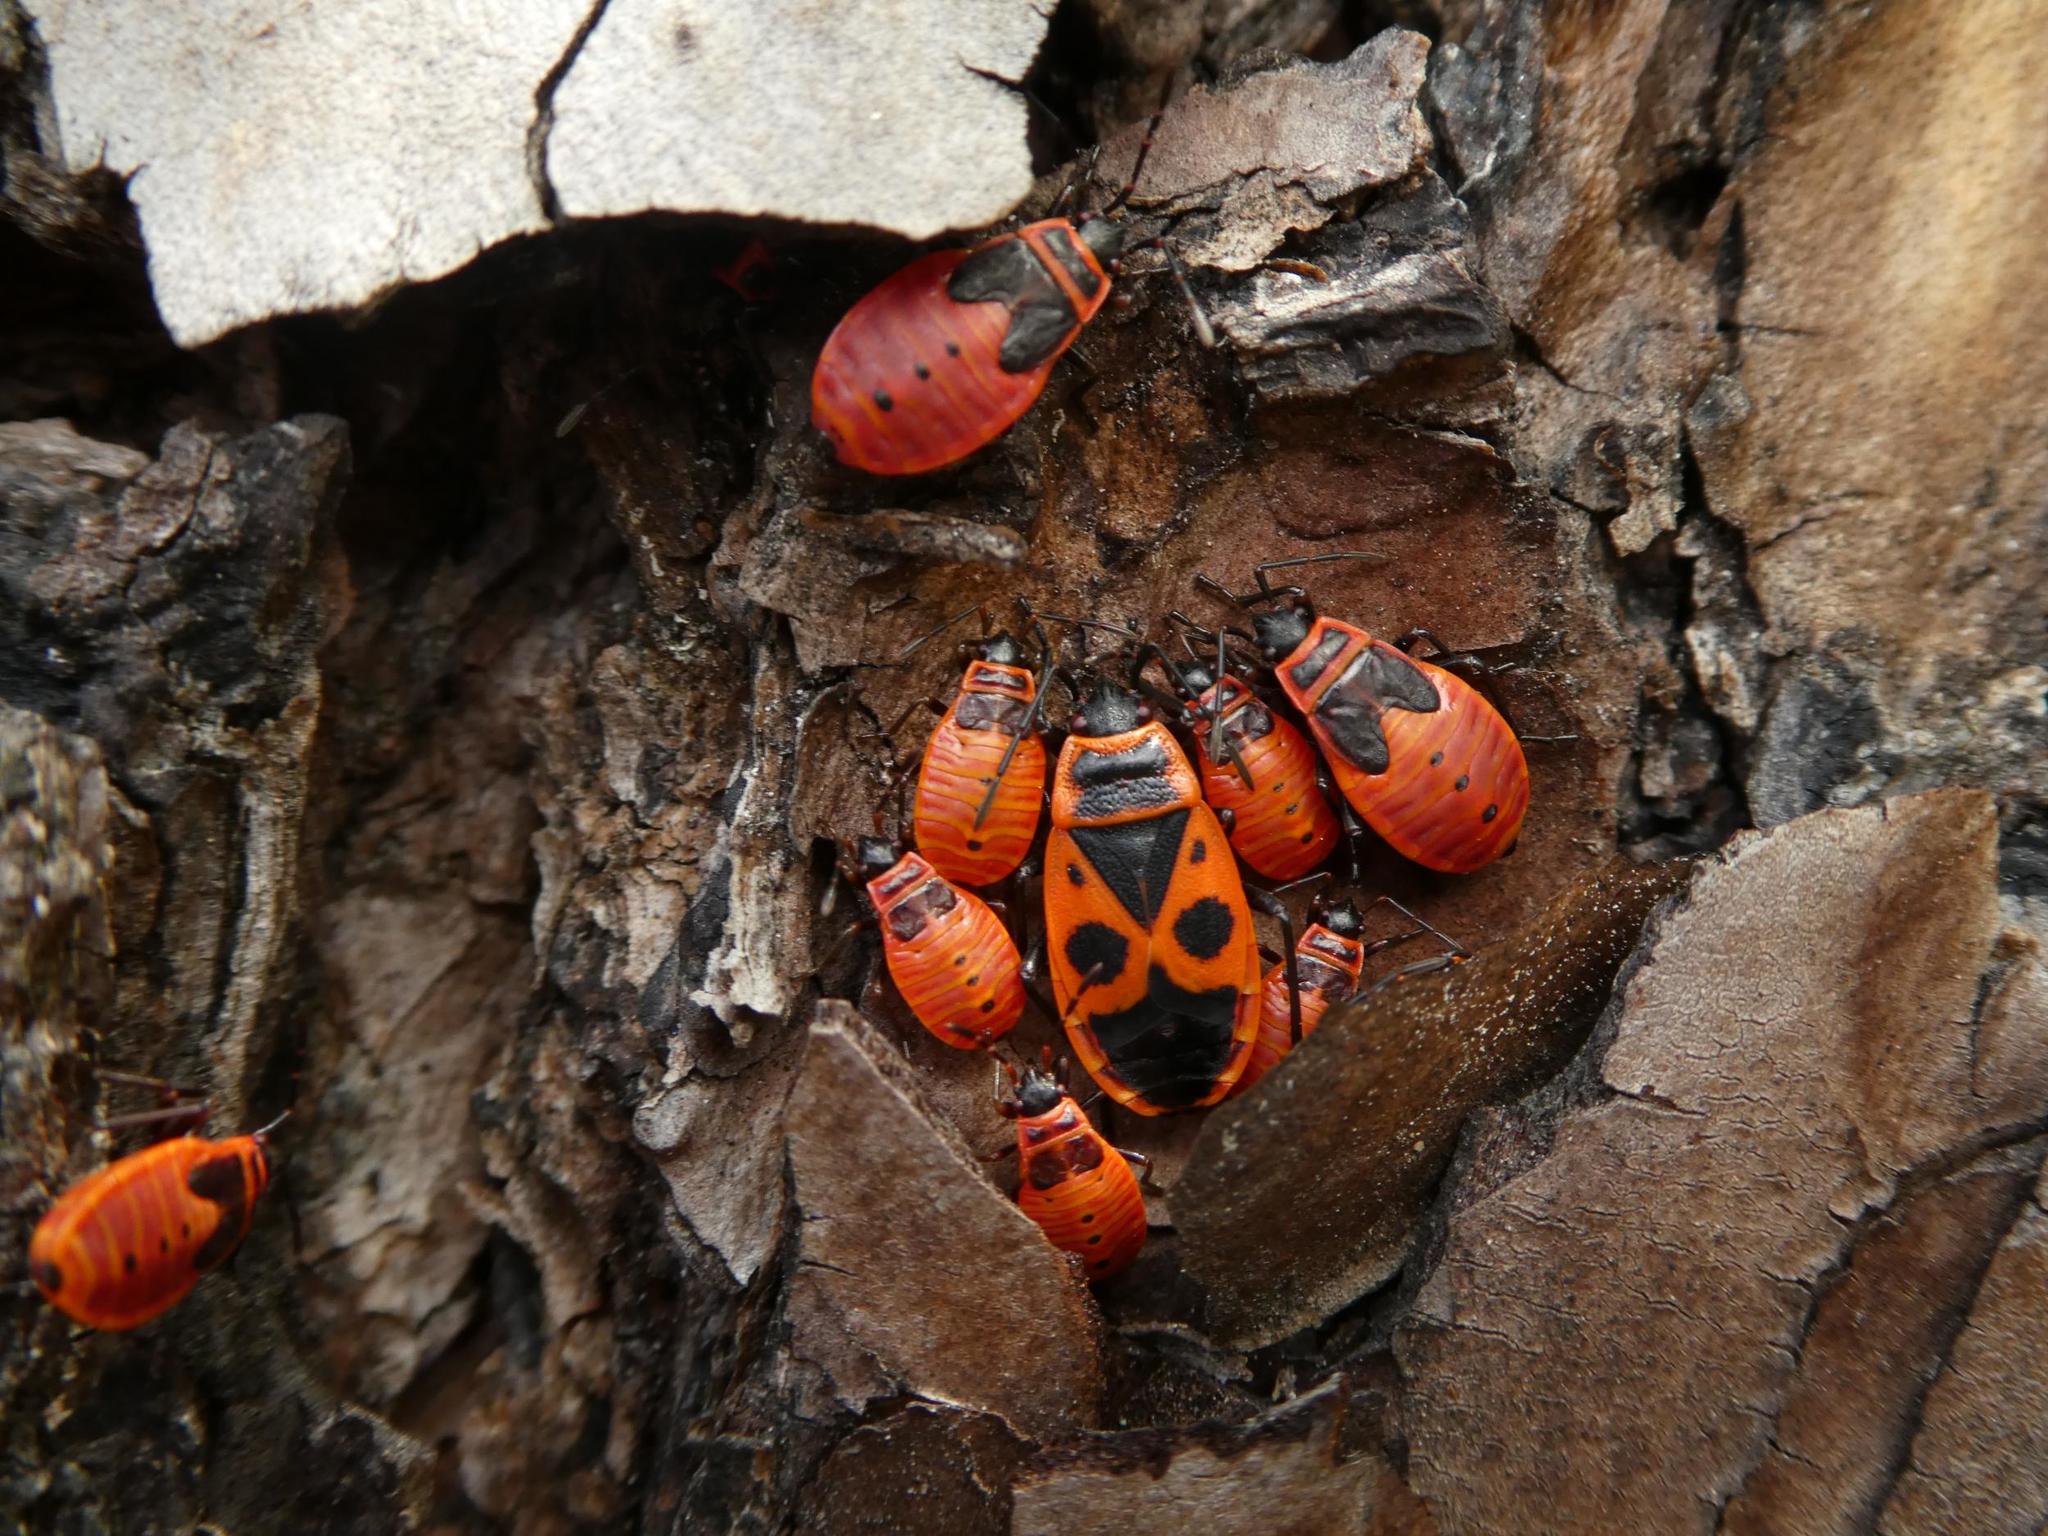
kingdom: Animalia
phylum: Arthropoda
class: Insecta
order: Hemiptera
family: Pyrrhocoridae
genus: Pyrrhocoris
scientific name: Pyrrhocoris apterus
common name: Firebug
